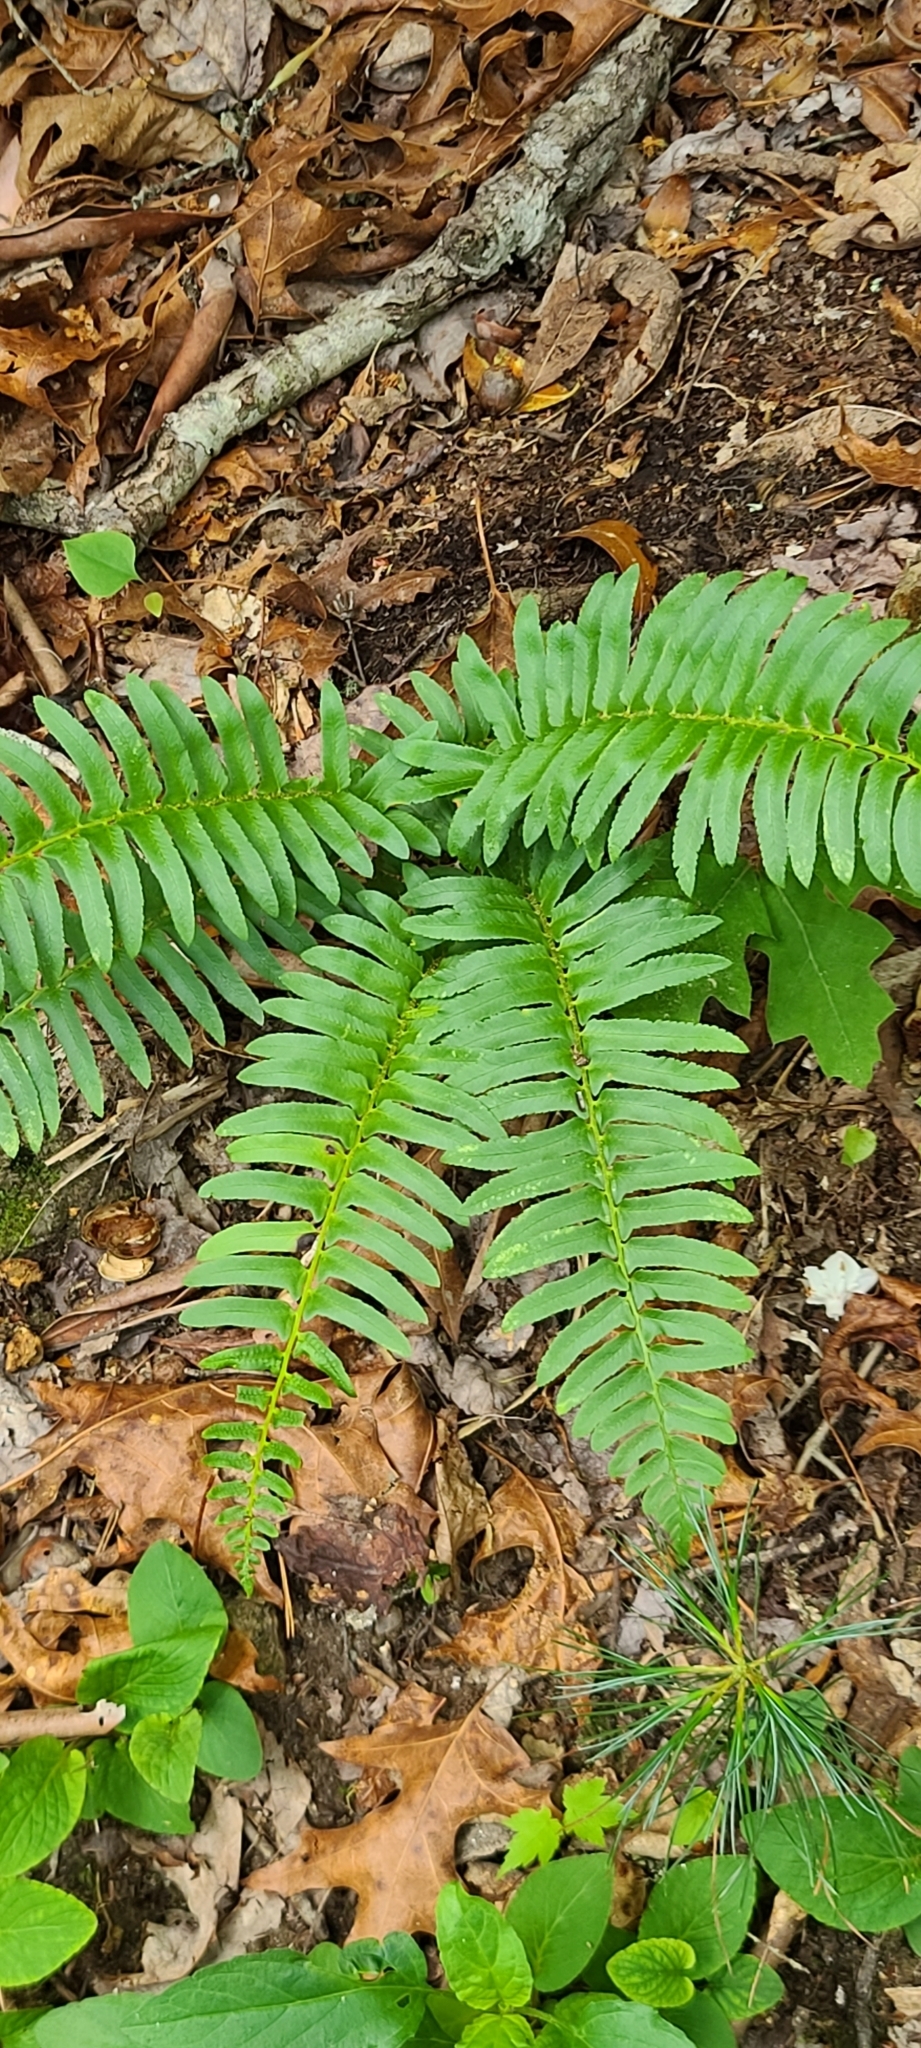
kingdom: Plantae
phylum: Tracheophyta
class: Polypodiopsida
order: Polypodiales
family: Dryopteridaceae
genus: Polystichum
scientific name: Polystichum acrostichoides
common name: Christmas fern
